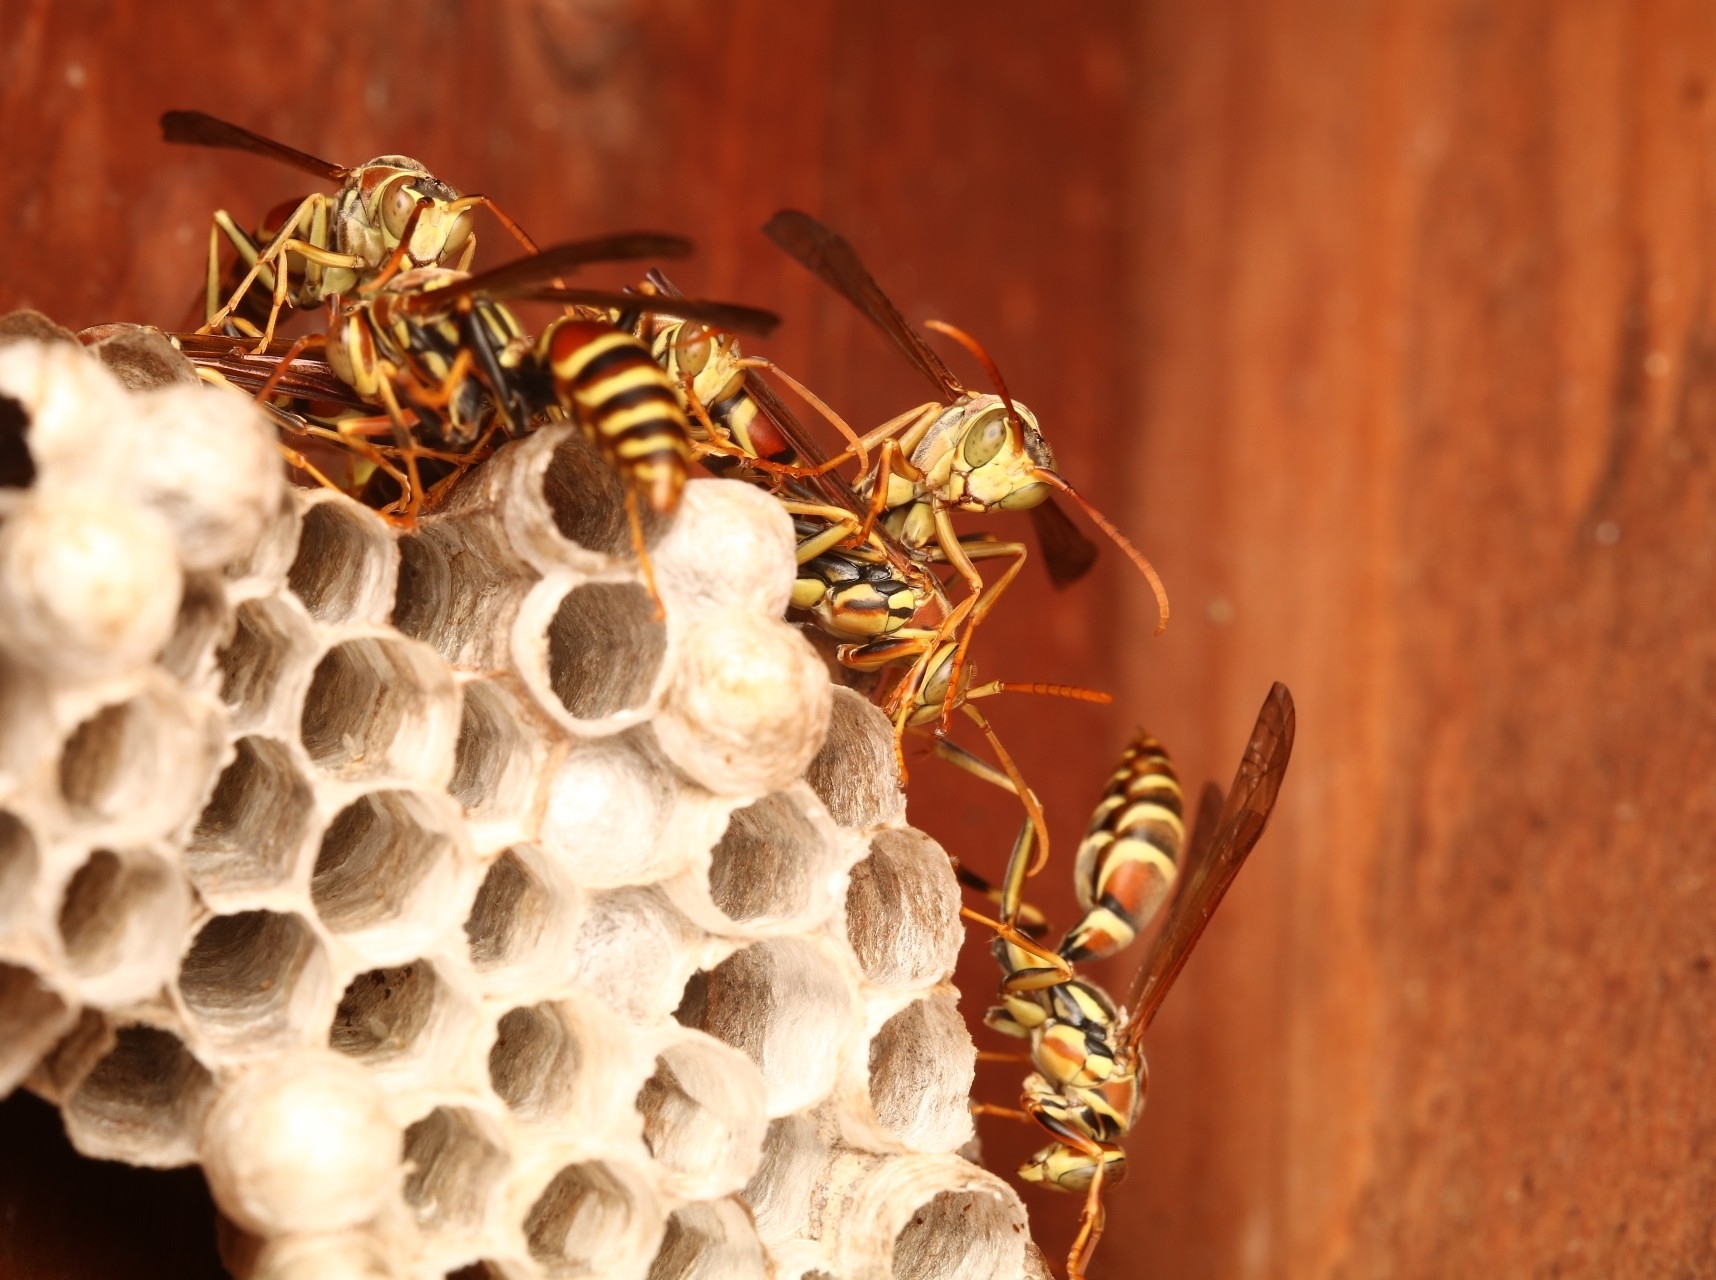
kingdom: Animalia
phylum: Arthropoda
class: Insecta
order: Hymenoptera
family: Eumenidae
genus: Polistes
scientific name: Polistes exclamans
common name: Paper wasp
